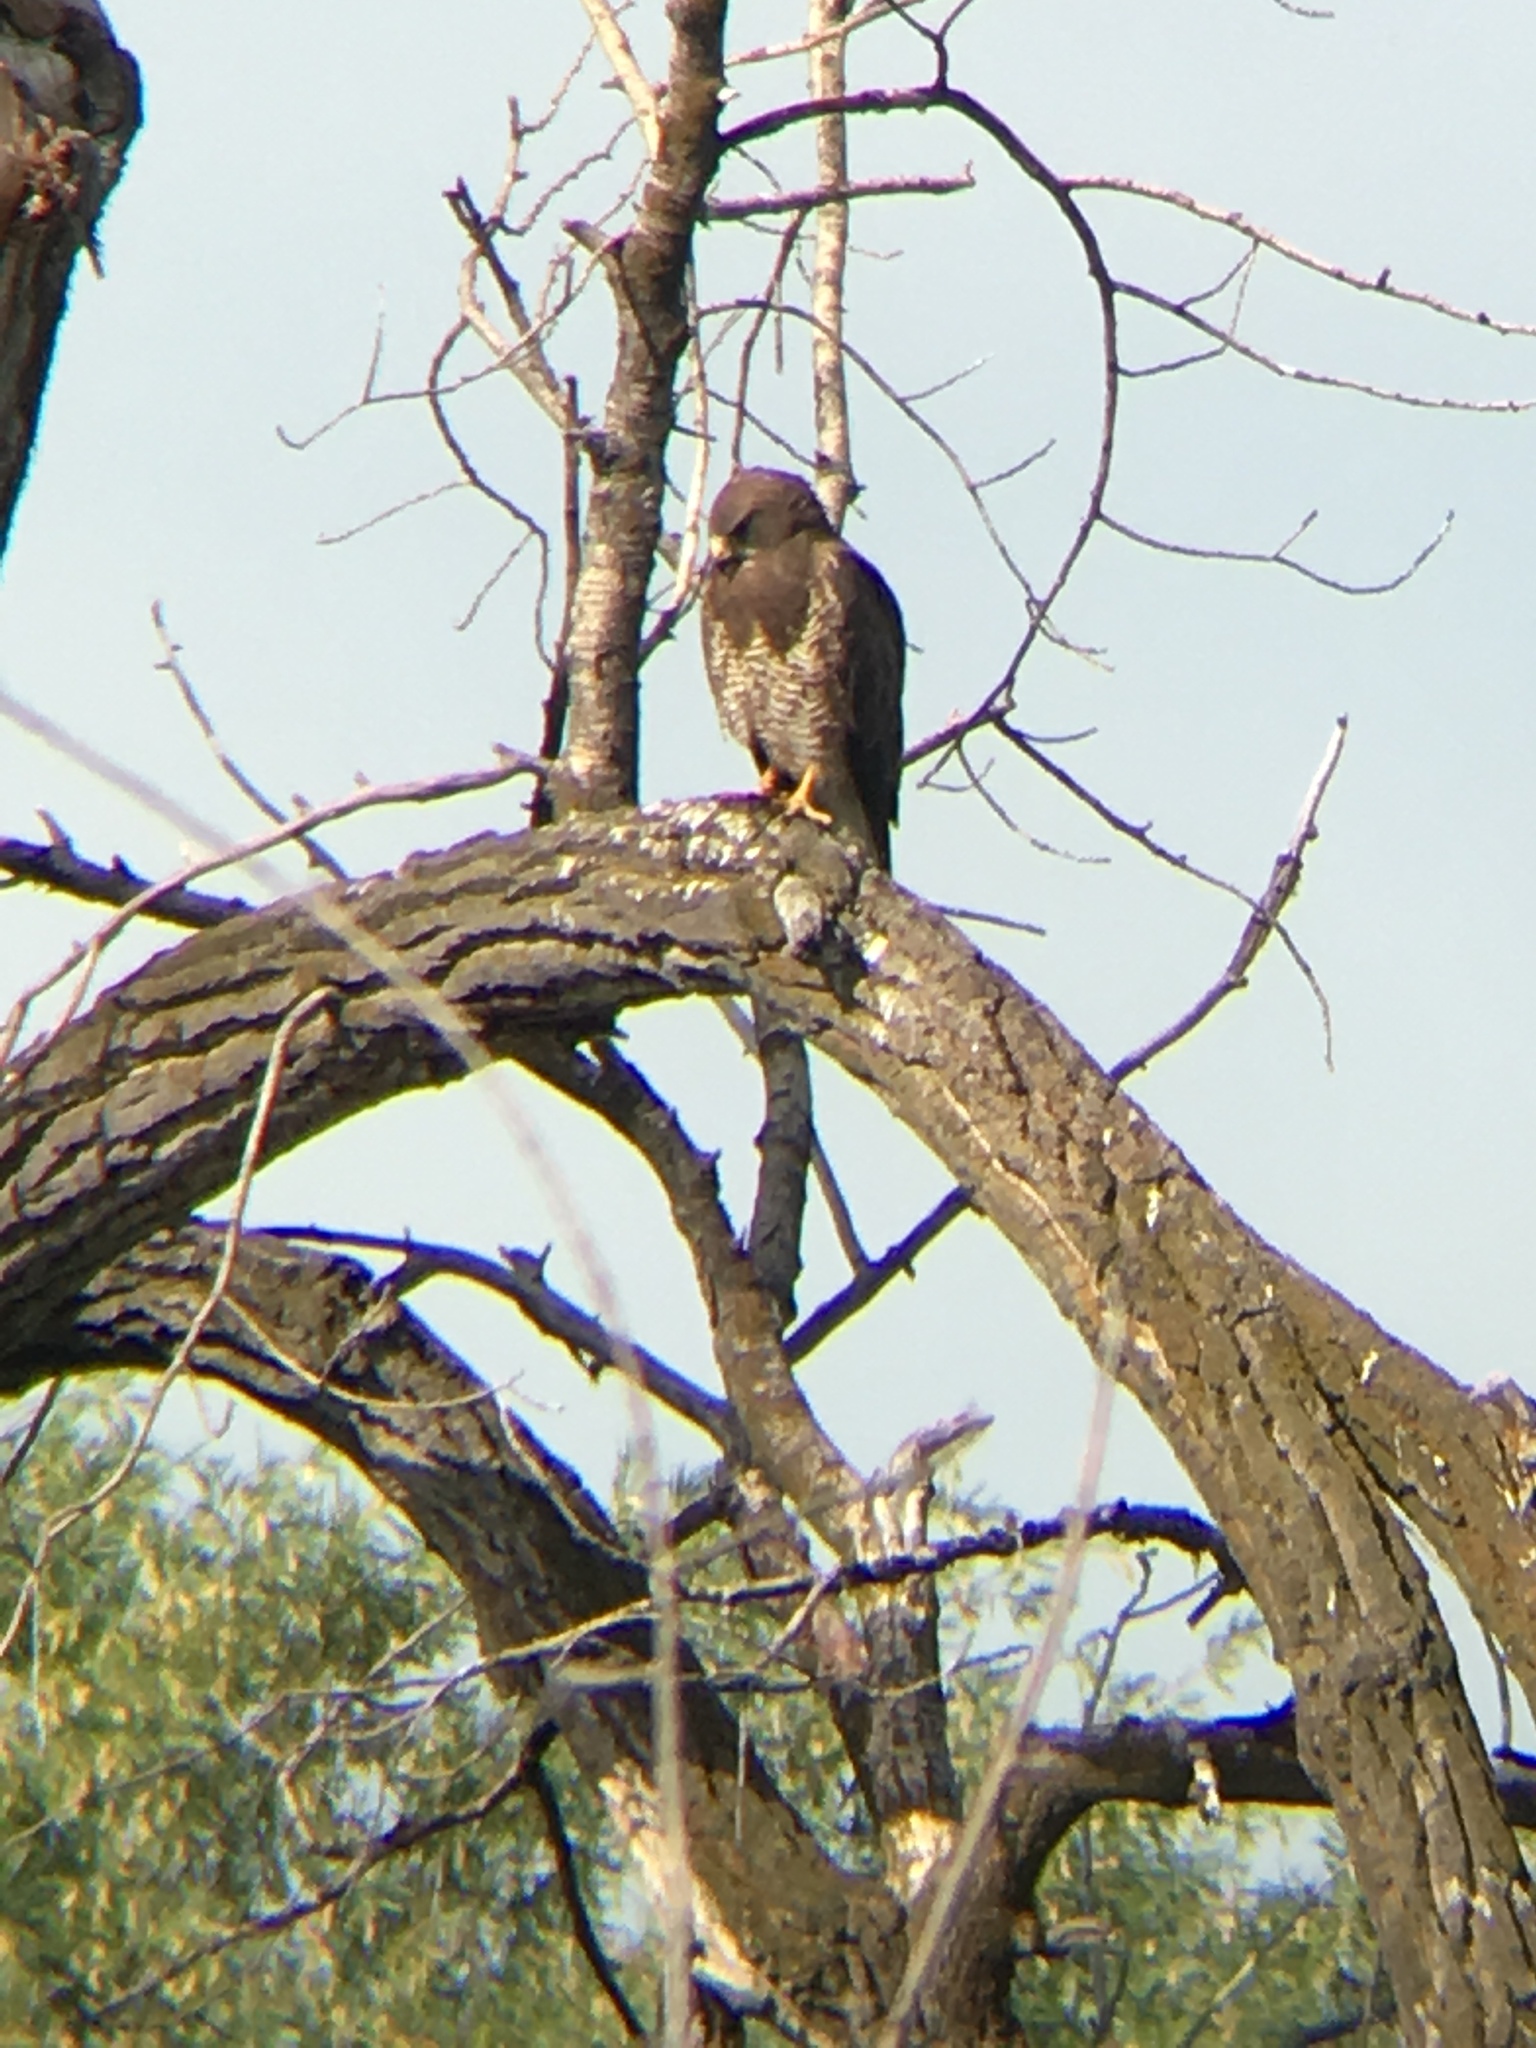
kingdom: Animalia
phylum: Chordata
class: Aves
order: Accipitriformes
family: Accipitridae
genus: Buteo
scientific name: Buteo swainsoni
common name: Swainson's hawk
